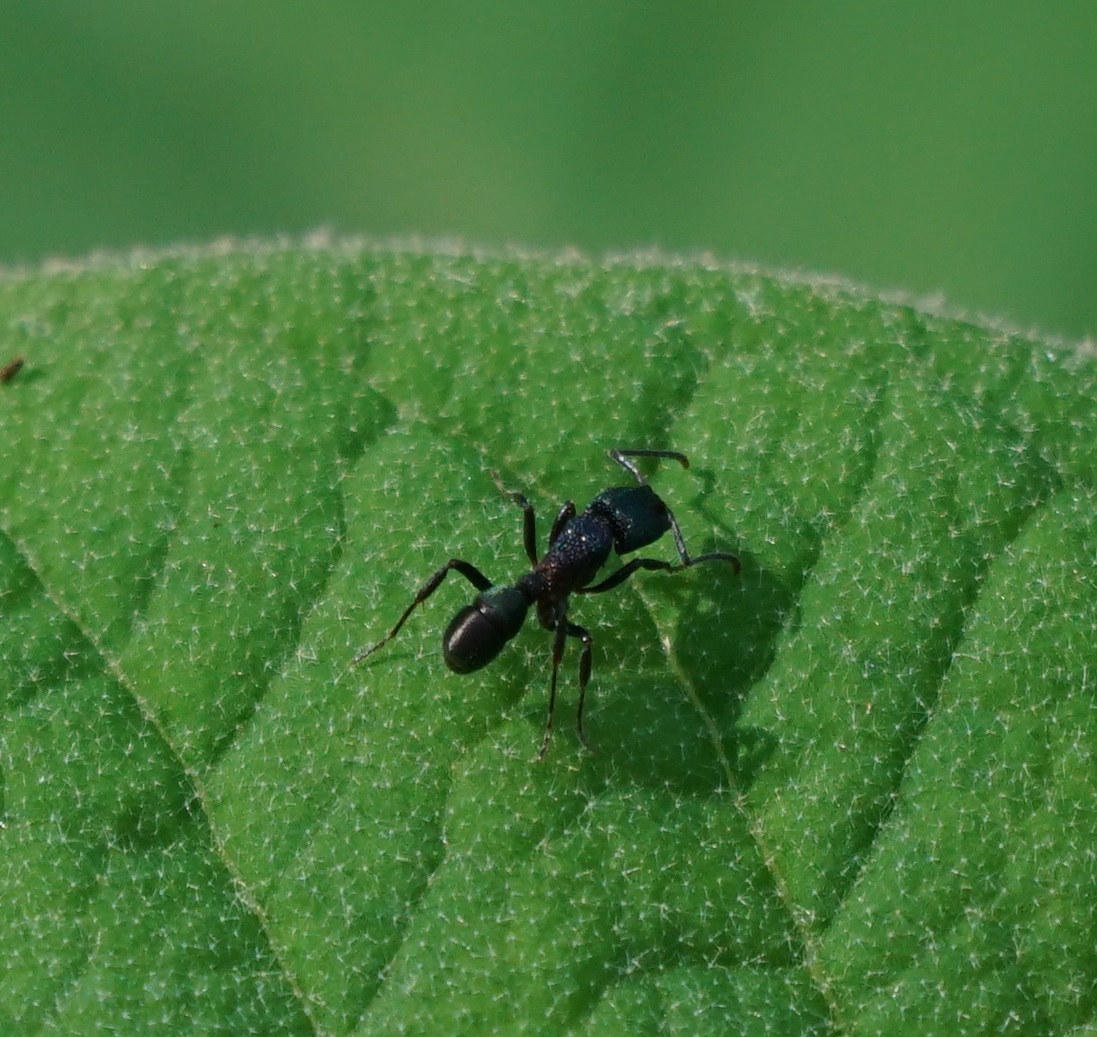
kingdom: Animalia
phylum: Arthropoda
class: Insecta
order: Hymenoptera
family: Formicidae
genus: Rhytidoponera
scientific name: Rhytidoponera metallica
